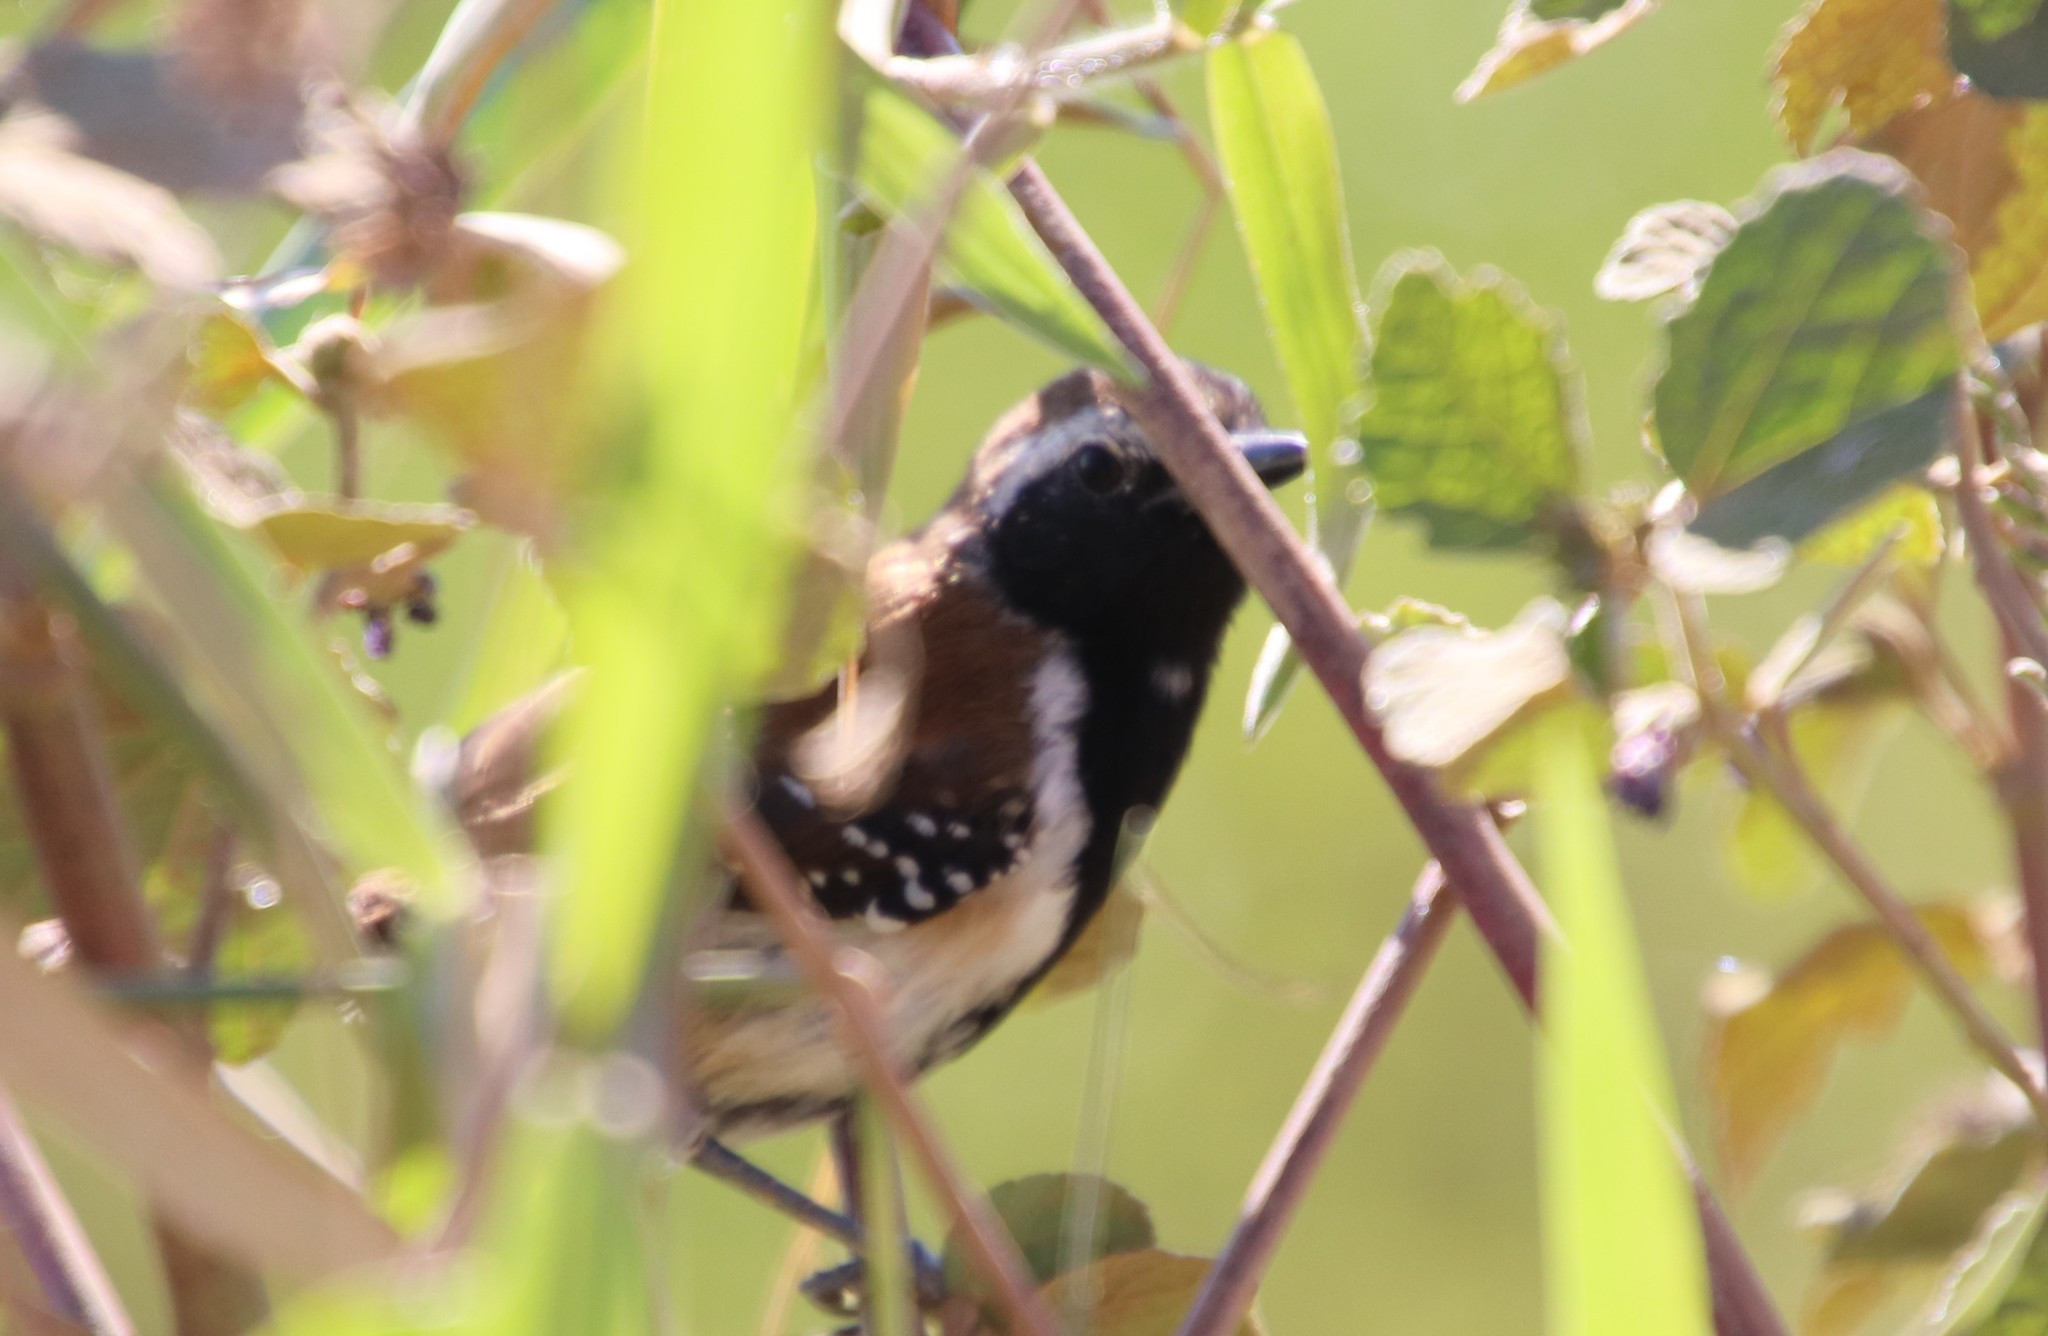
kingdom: Animalia
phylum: Chordata
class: Aves
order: Passeriformes
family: Thamnophilidae
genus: Formicivora
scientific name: Formicivora rufa
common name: Rusty-backed antwren
